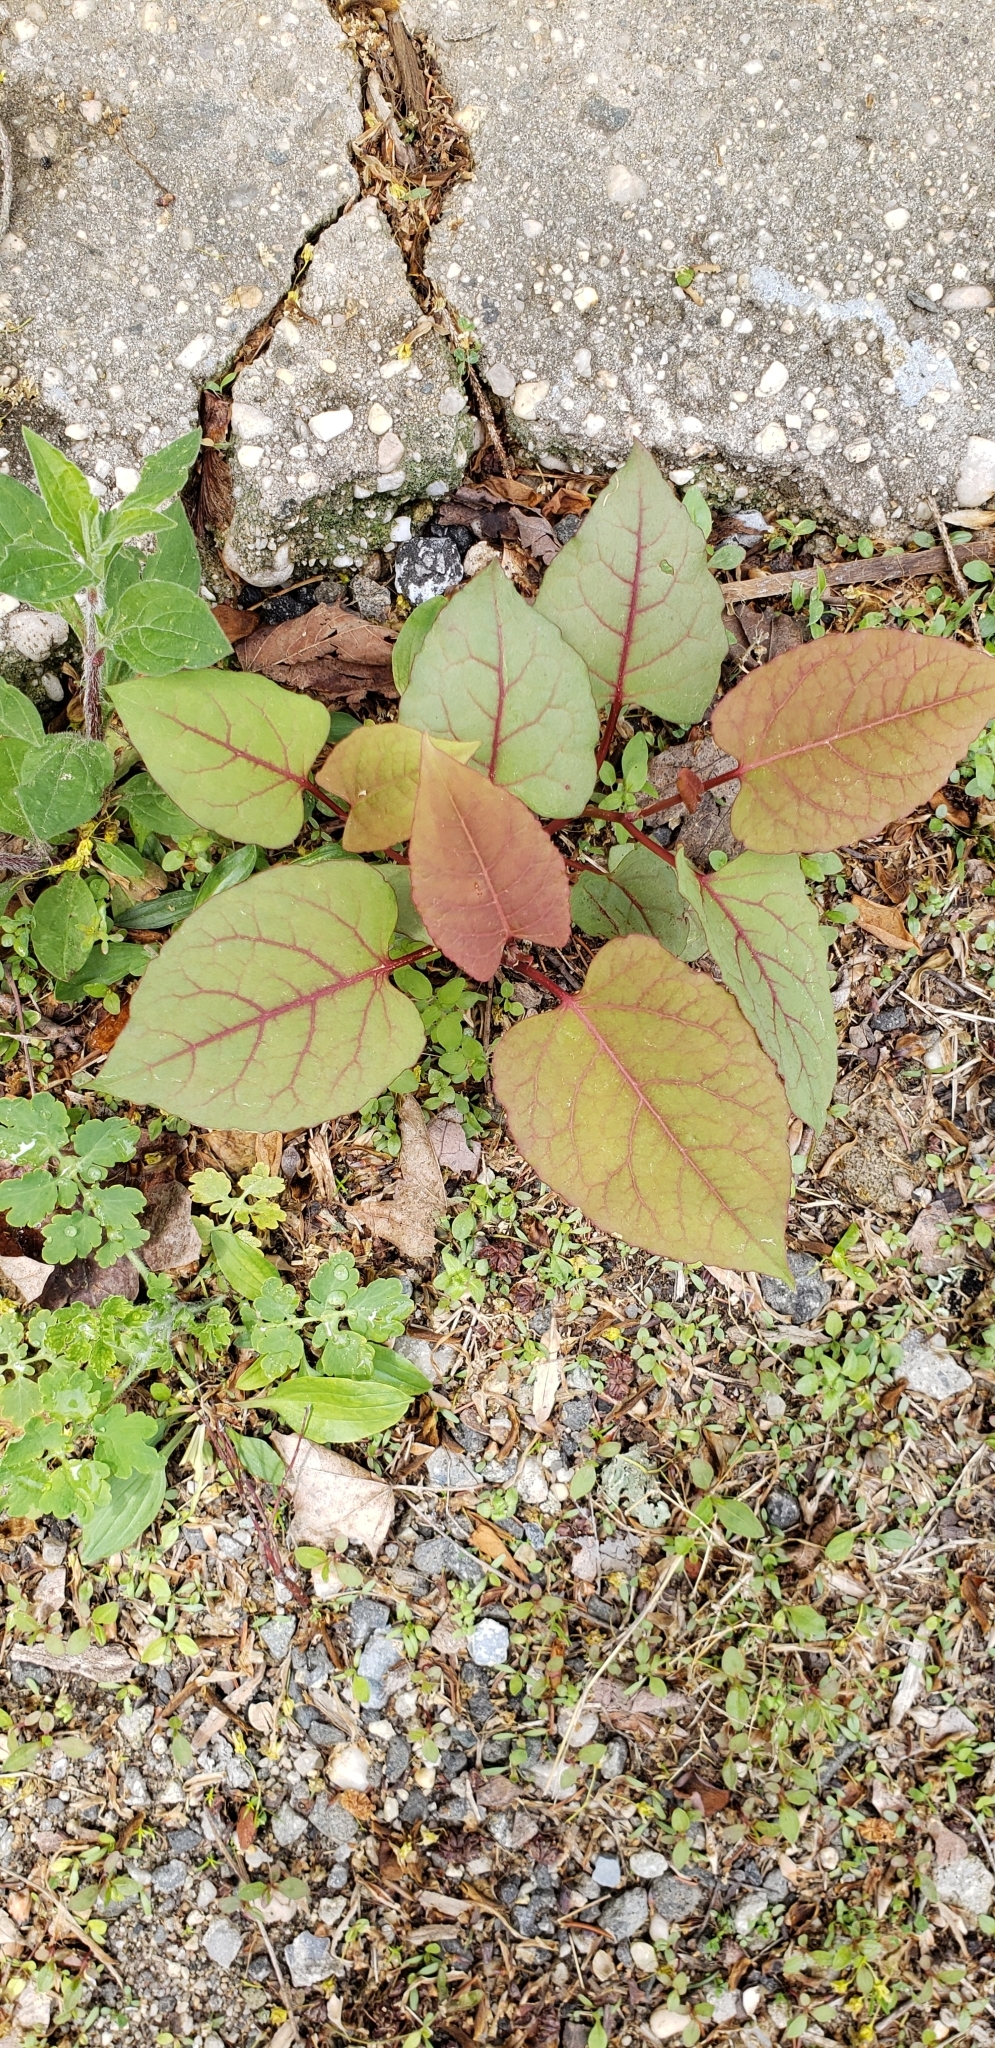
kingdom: Plantae
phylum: Tracheophyta
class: Magnoliopsida
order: Caryophyllales
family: Polygonaceae
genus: Reynoutria
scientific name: Reynoutria japonica
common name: Japanese knotweed
